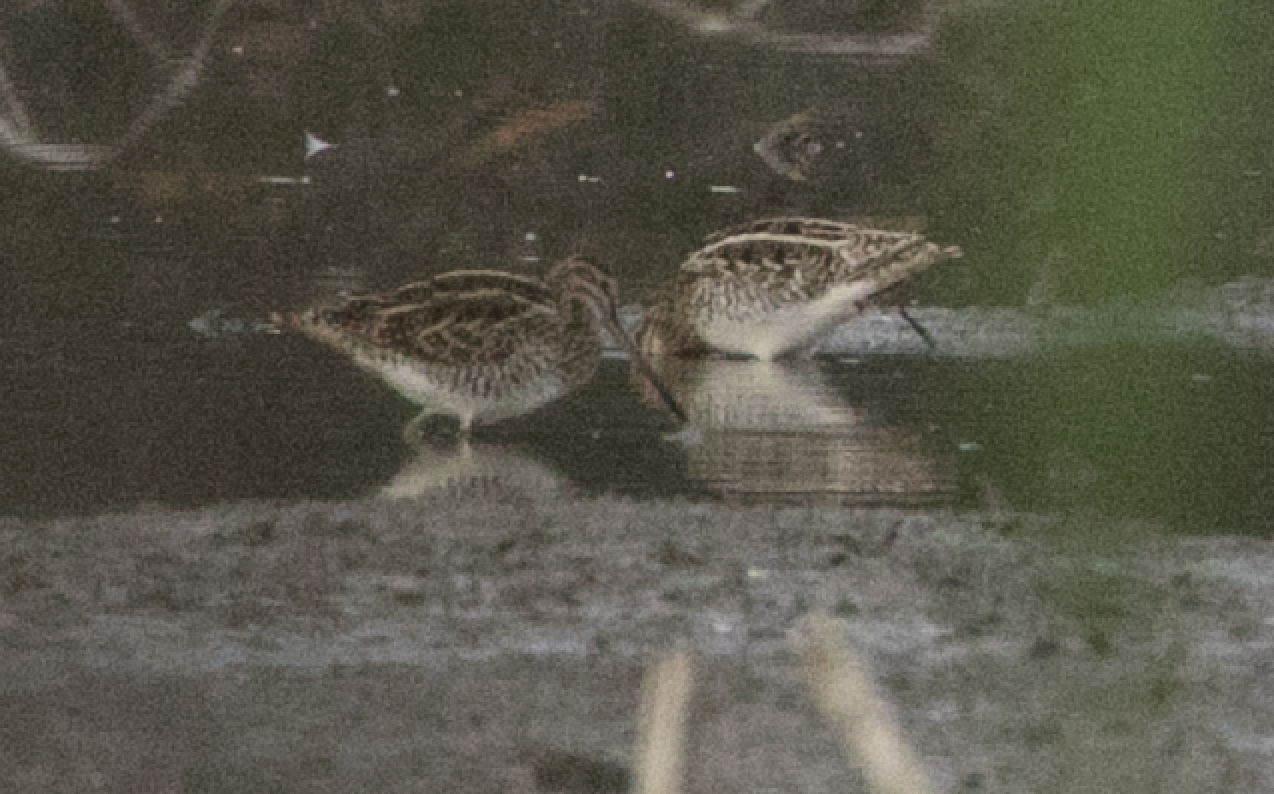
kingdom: Animalia
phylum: Chordata
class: Aves
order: Charadriiformes
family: Scolopacidae
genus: Gallinago
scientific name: Gallinago gallinago
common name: Common snipe
